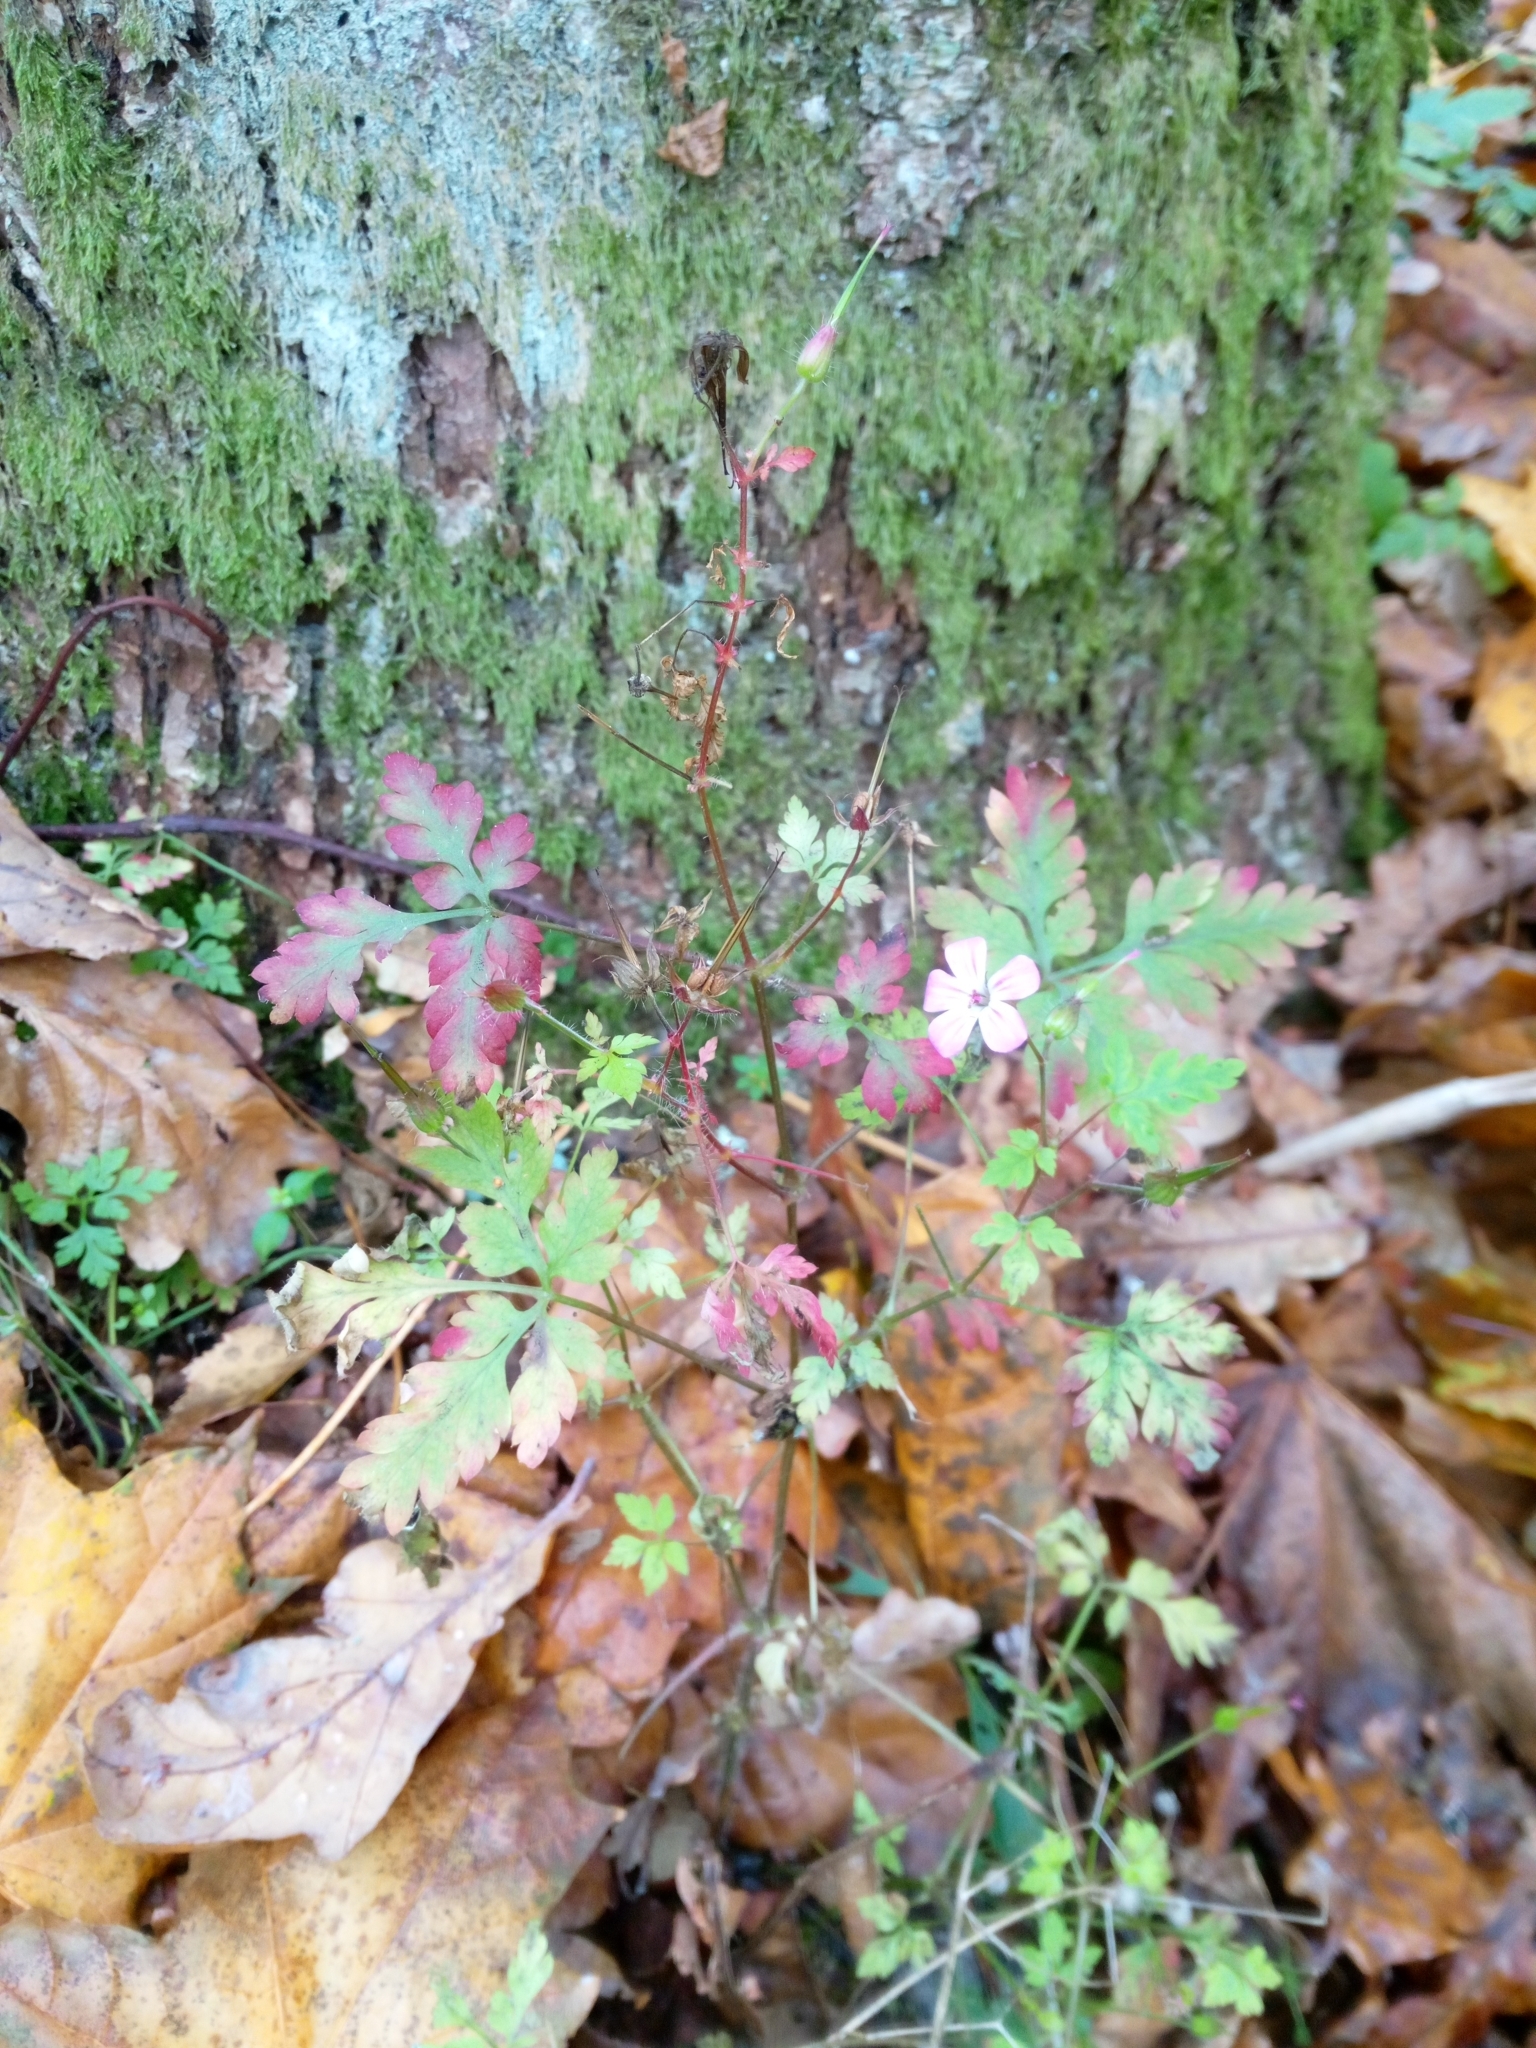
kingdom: Plantae
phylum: Tracheophyta
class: Magnoliopsida
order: Geraniales
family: Geraniaceae
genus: Geranium
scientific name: Geranium robertianum
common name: Herb-robert
